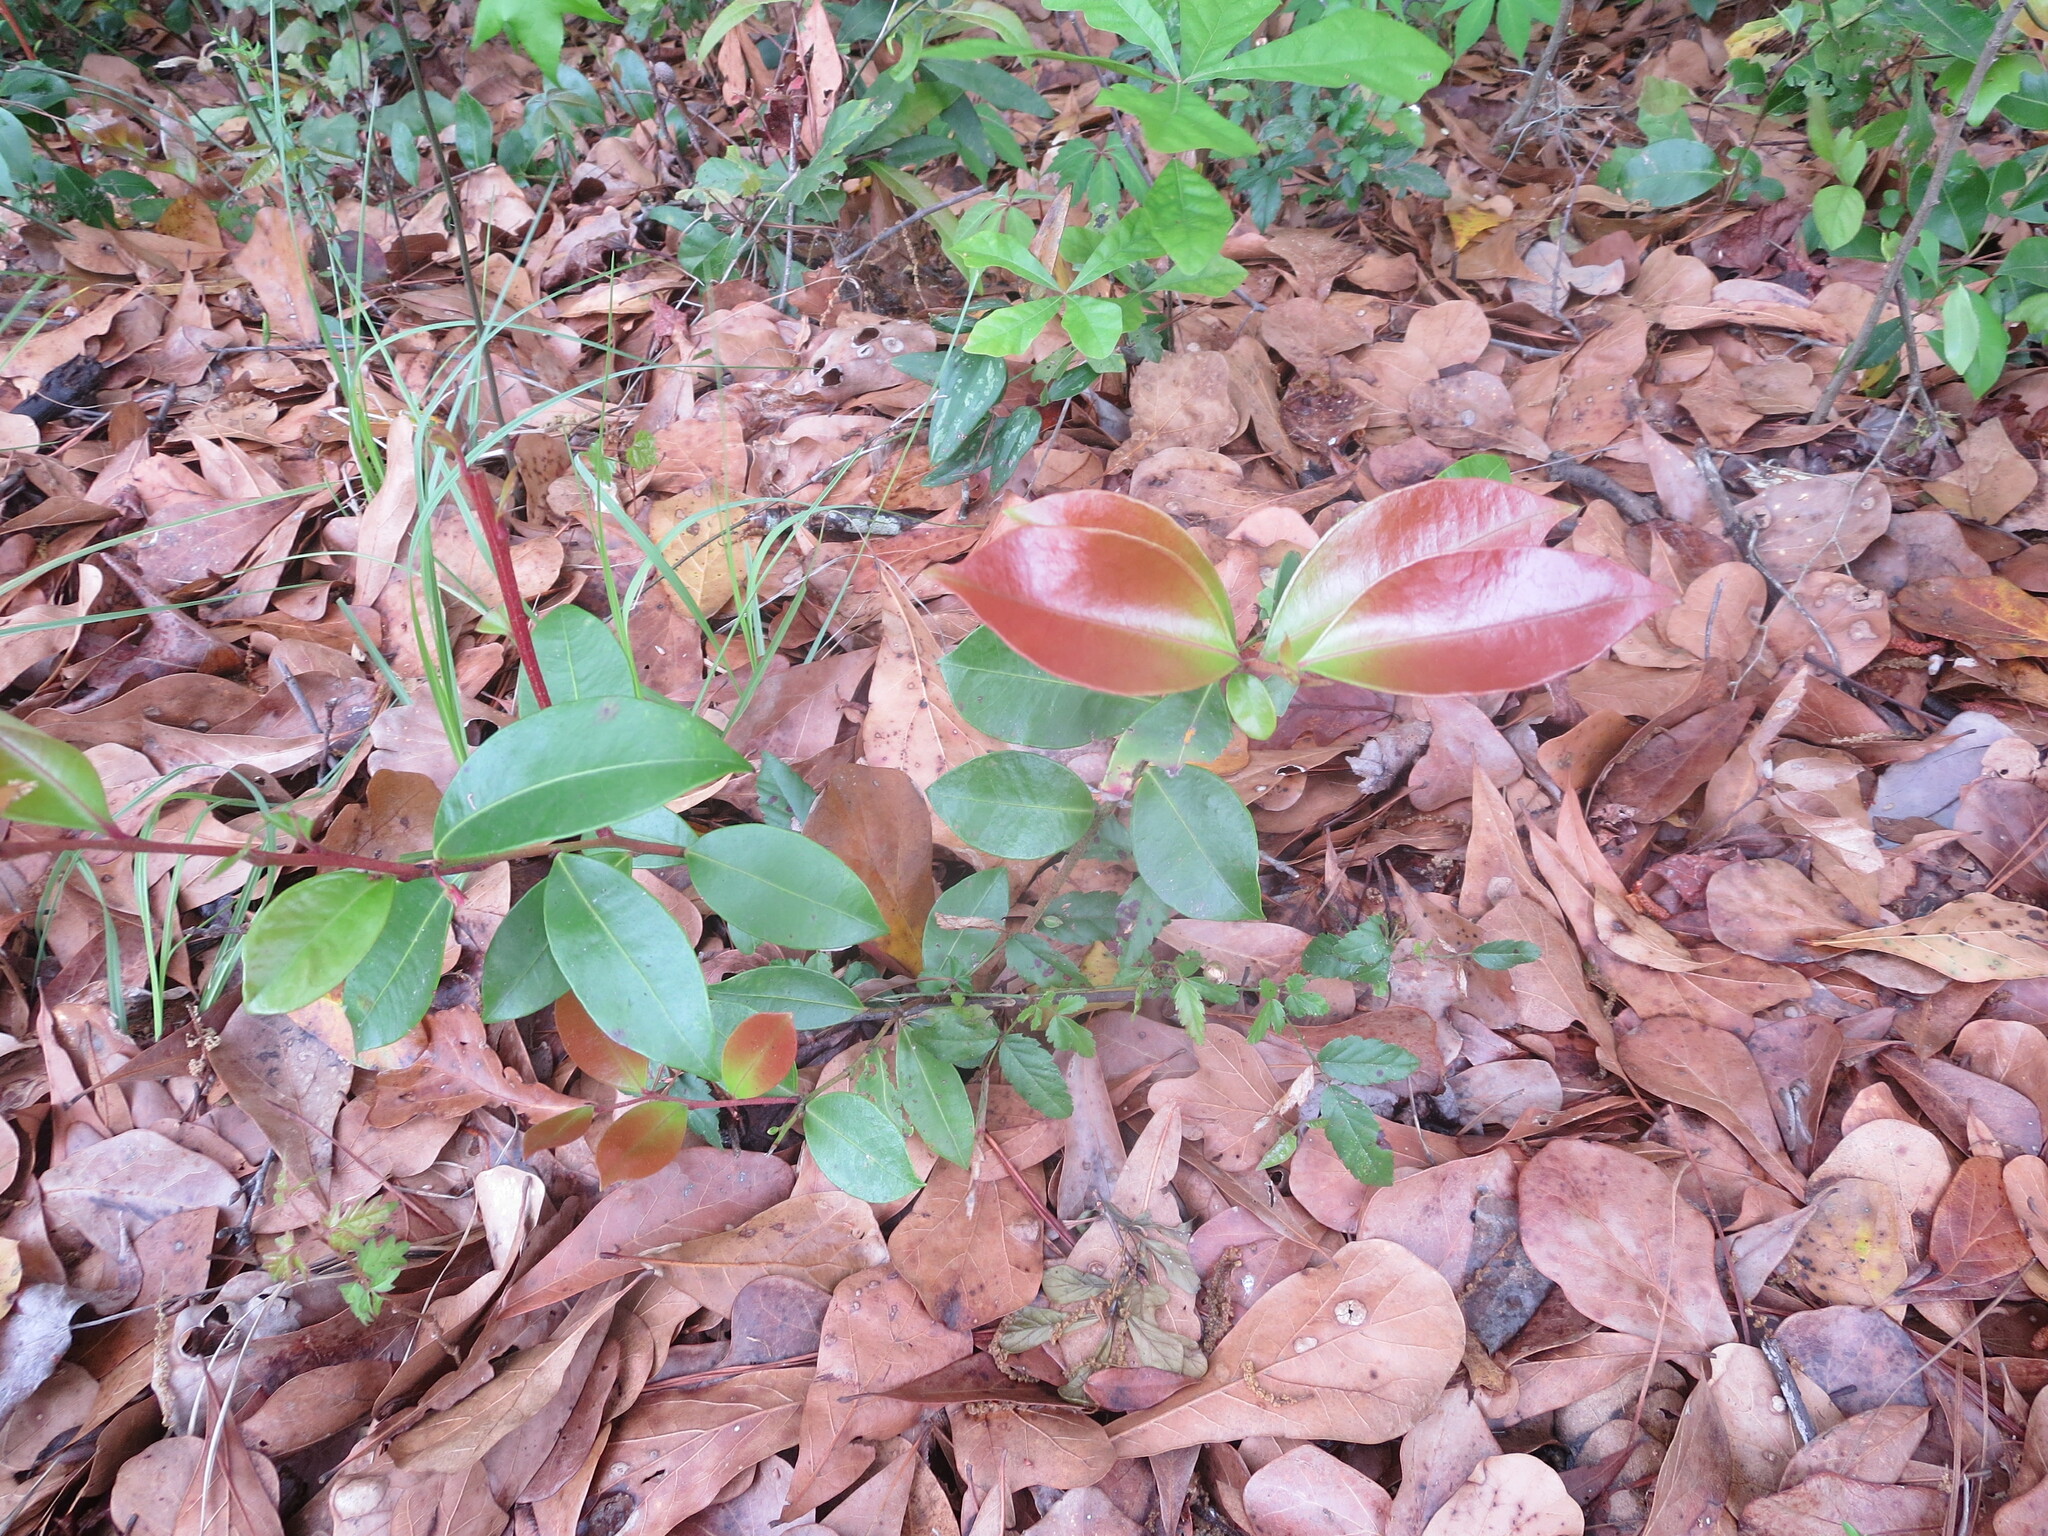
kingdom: Plantae
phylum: Tracheophyta
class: Magnoliopsida
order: Ericales
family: Ericaceae
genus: Lyonia
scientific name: Lyonia lucida
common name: Fetterbush
